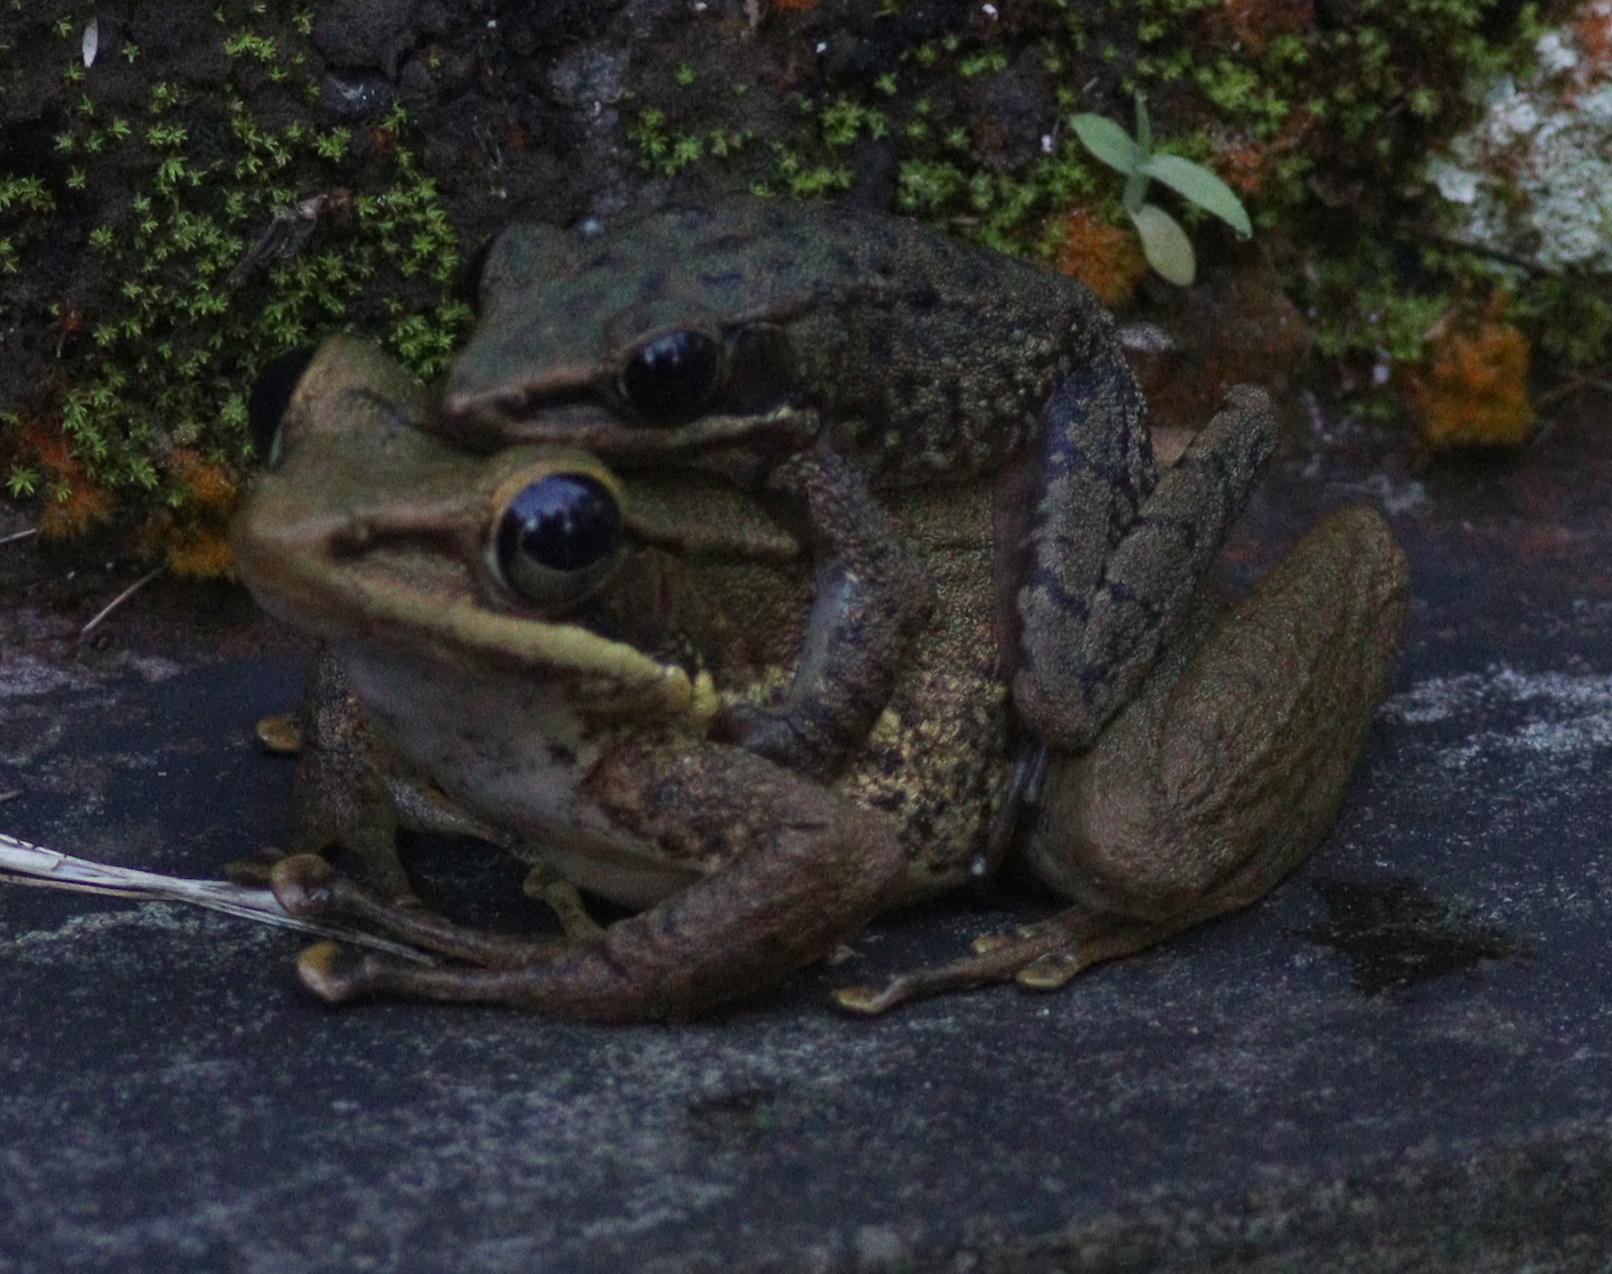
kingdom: Animalia
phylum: Chordata
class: Amphibia
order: Anura
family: Ranidae
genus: Chalcorana
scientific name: Chalcorana chalconota
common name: Schlegel's frog
